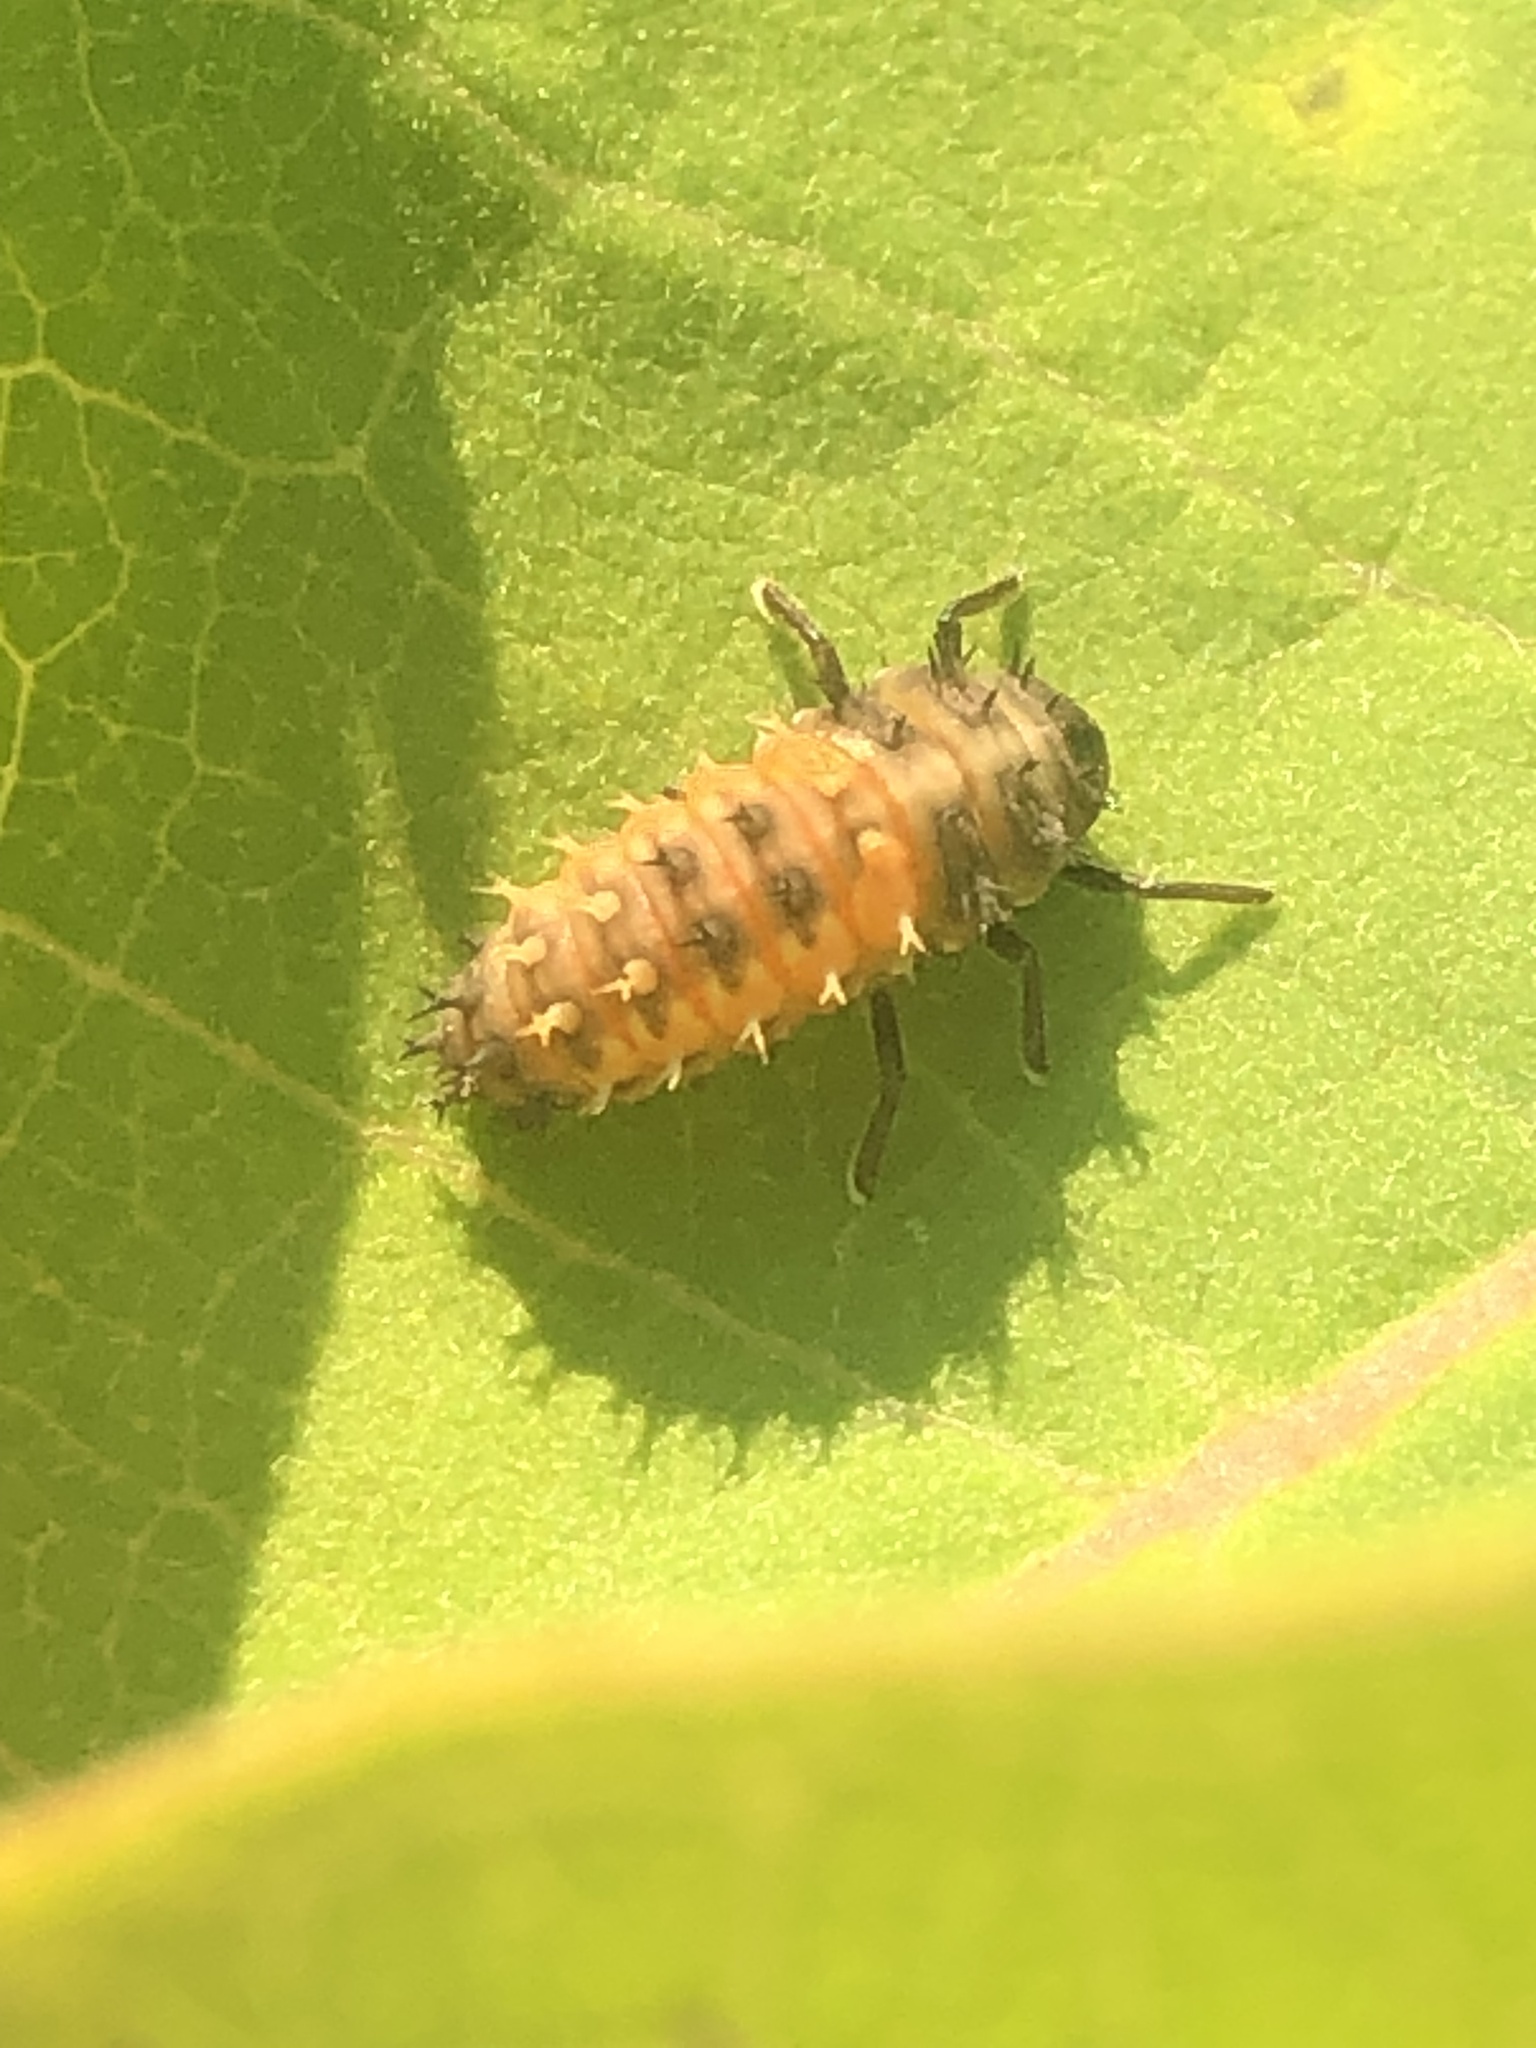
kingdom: Animalia
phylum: Arthropoda
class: Insecta
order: Coleoptera
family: Coccinellidae
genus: Harmonia
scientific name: Harmonia axyridis
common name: Harlequin ladybird
